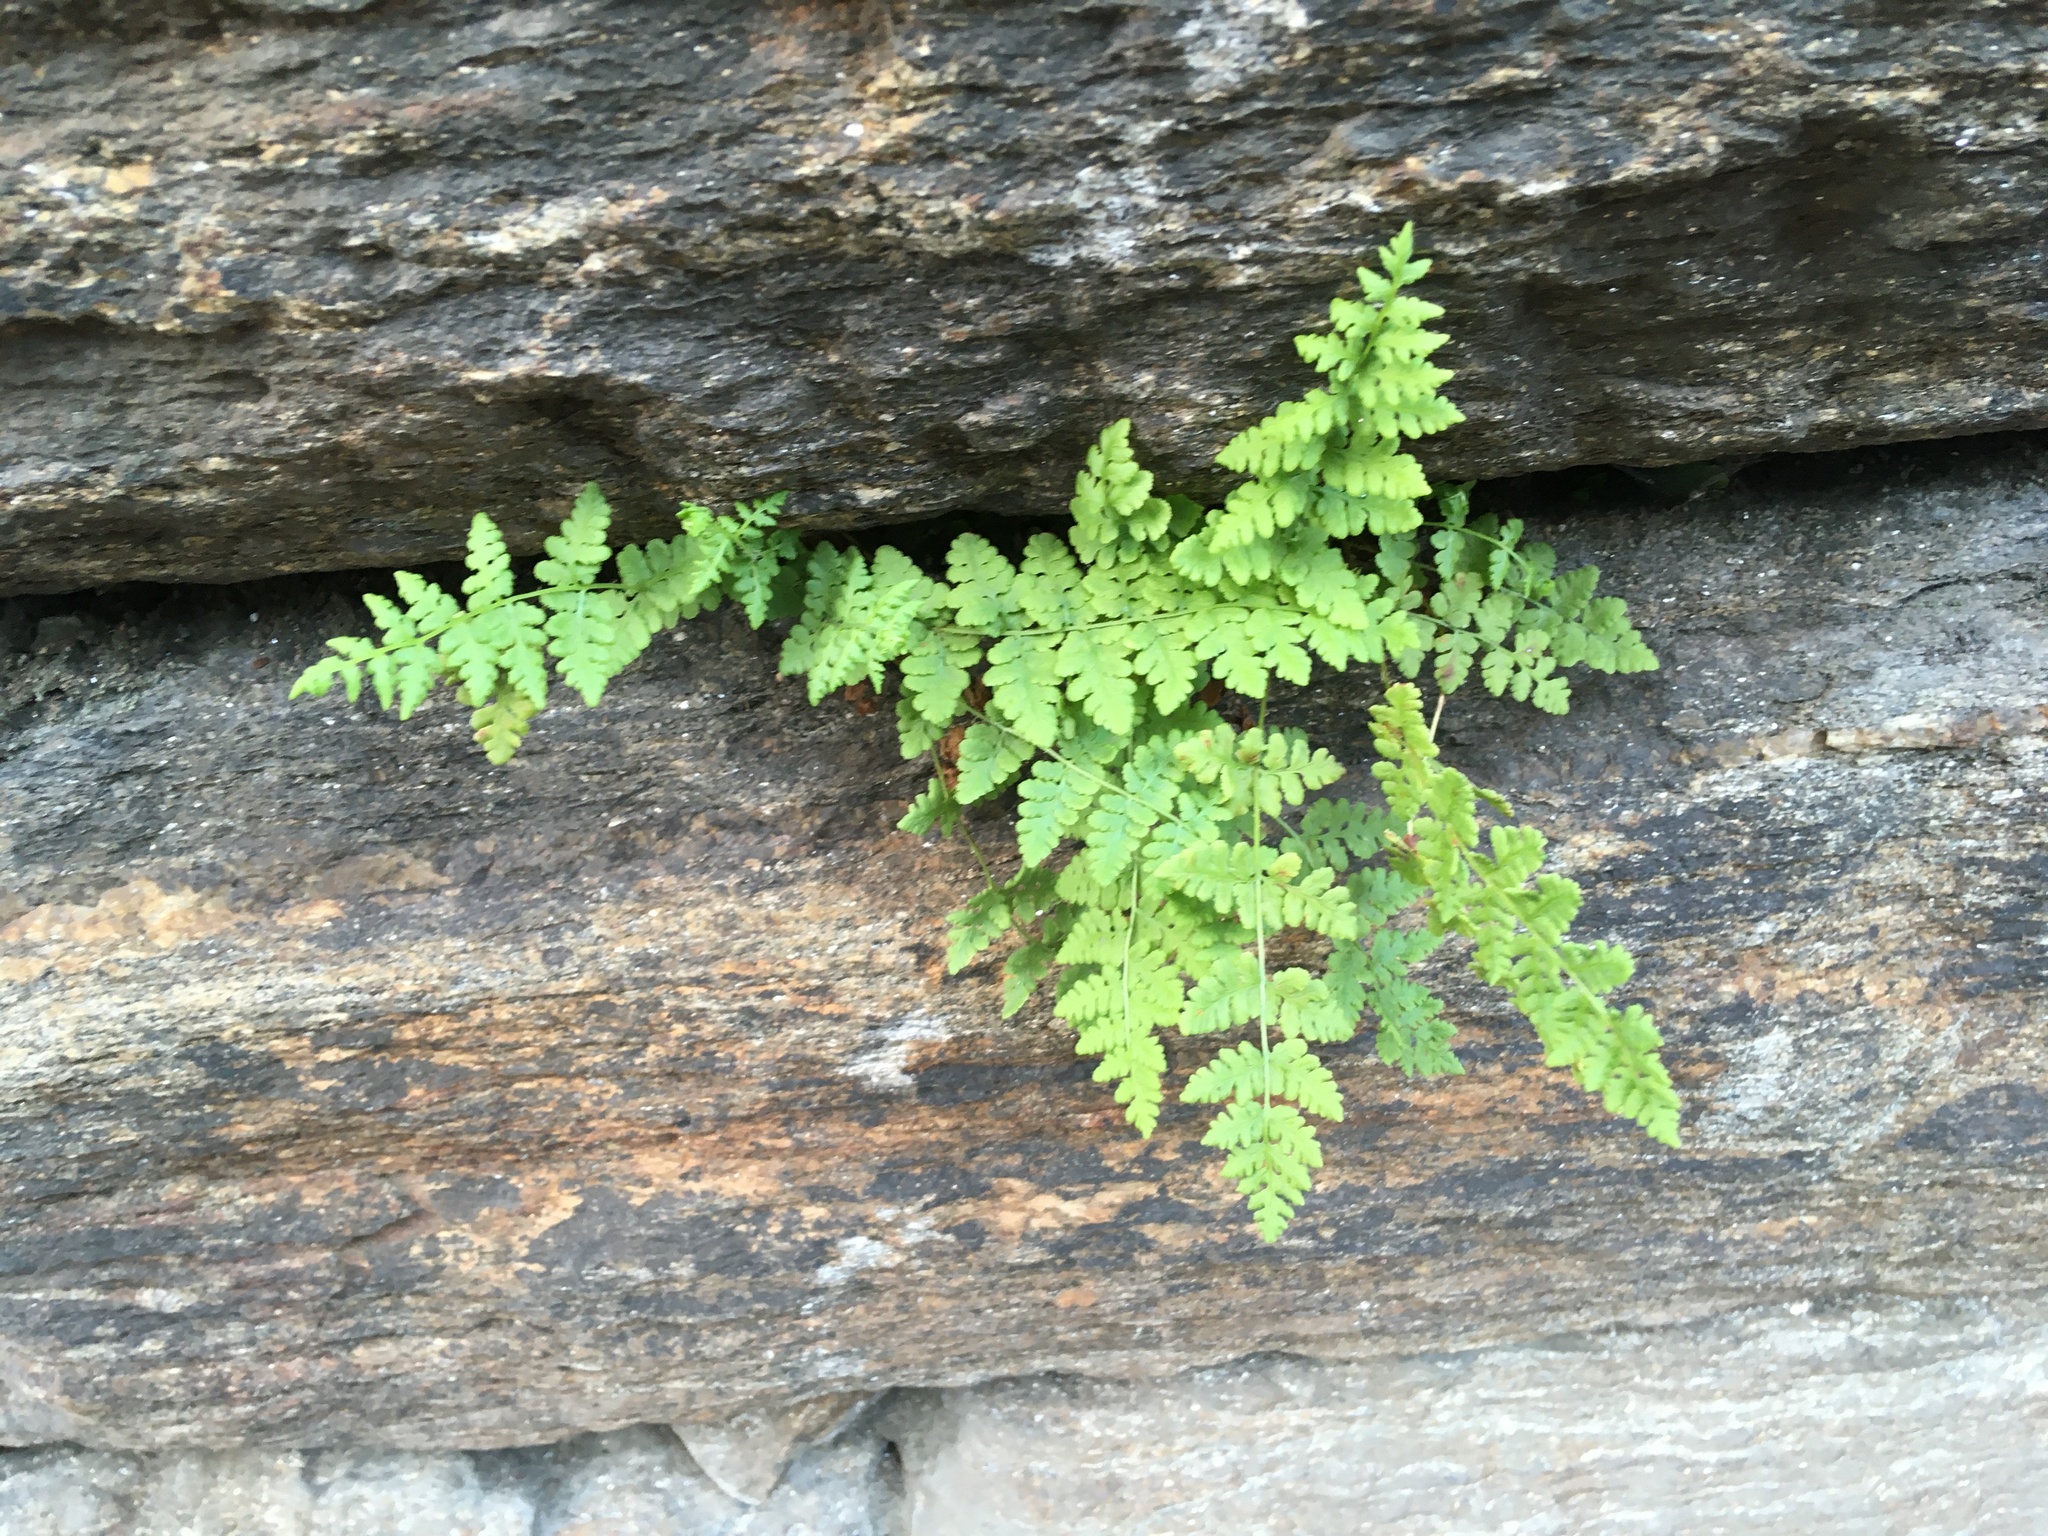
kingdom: Plantae
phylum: Tracheophyta
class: Polypodiopsida
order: Polypodiales
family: Woodsiaceae
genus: Physematium
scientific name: Physematium obtusum
